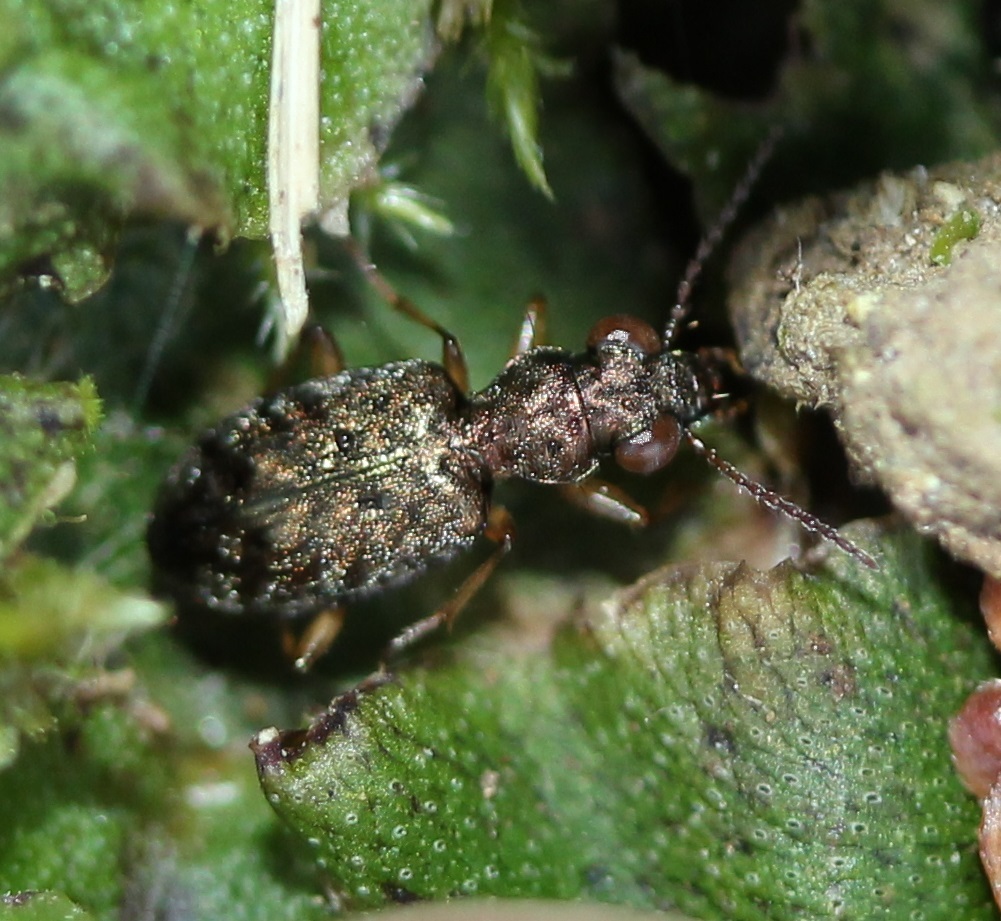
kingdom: Animalia
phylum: Arthropoda
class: Insecta
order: Coleoptera
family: Carabidae
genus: Asaphidion
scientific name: Asaphidion curtum
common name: Ground beetle
